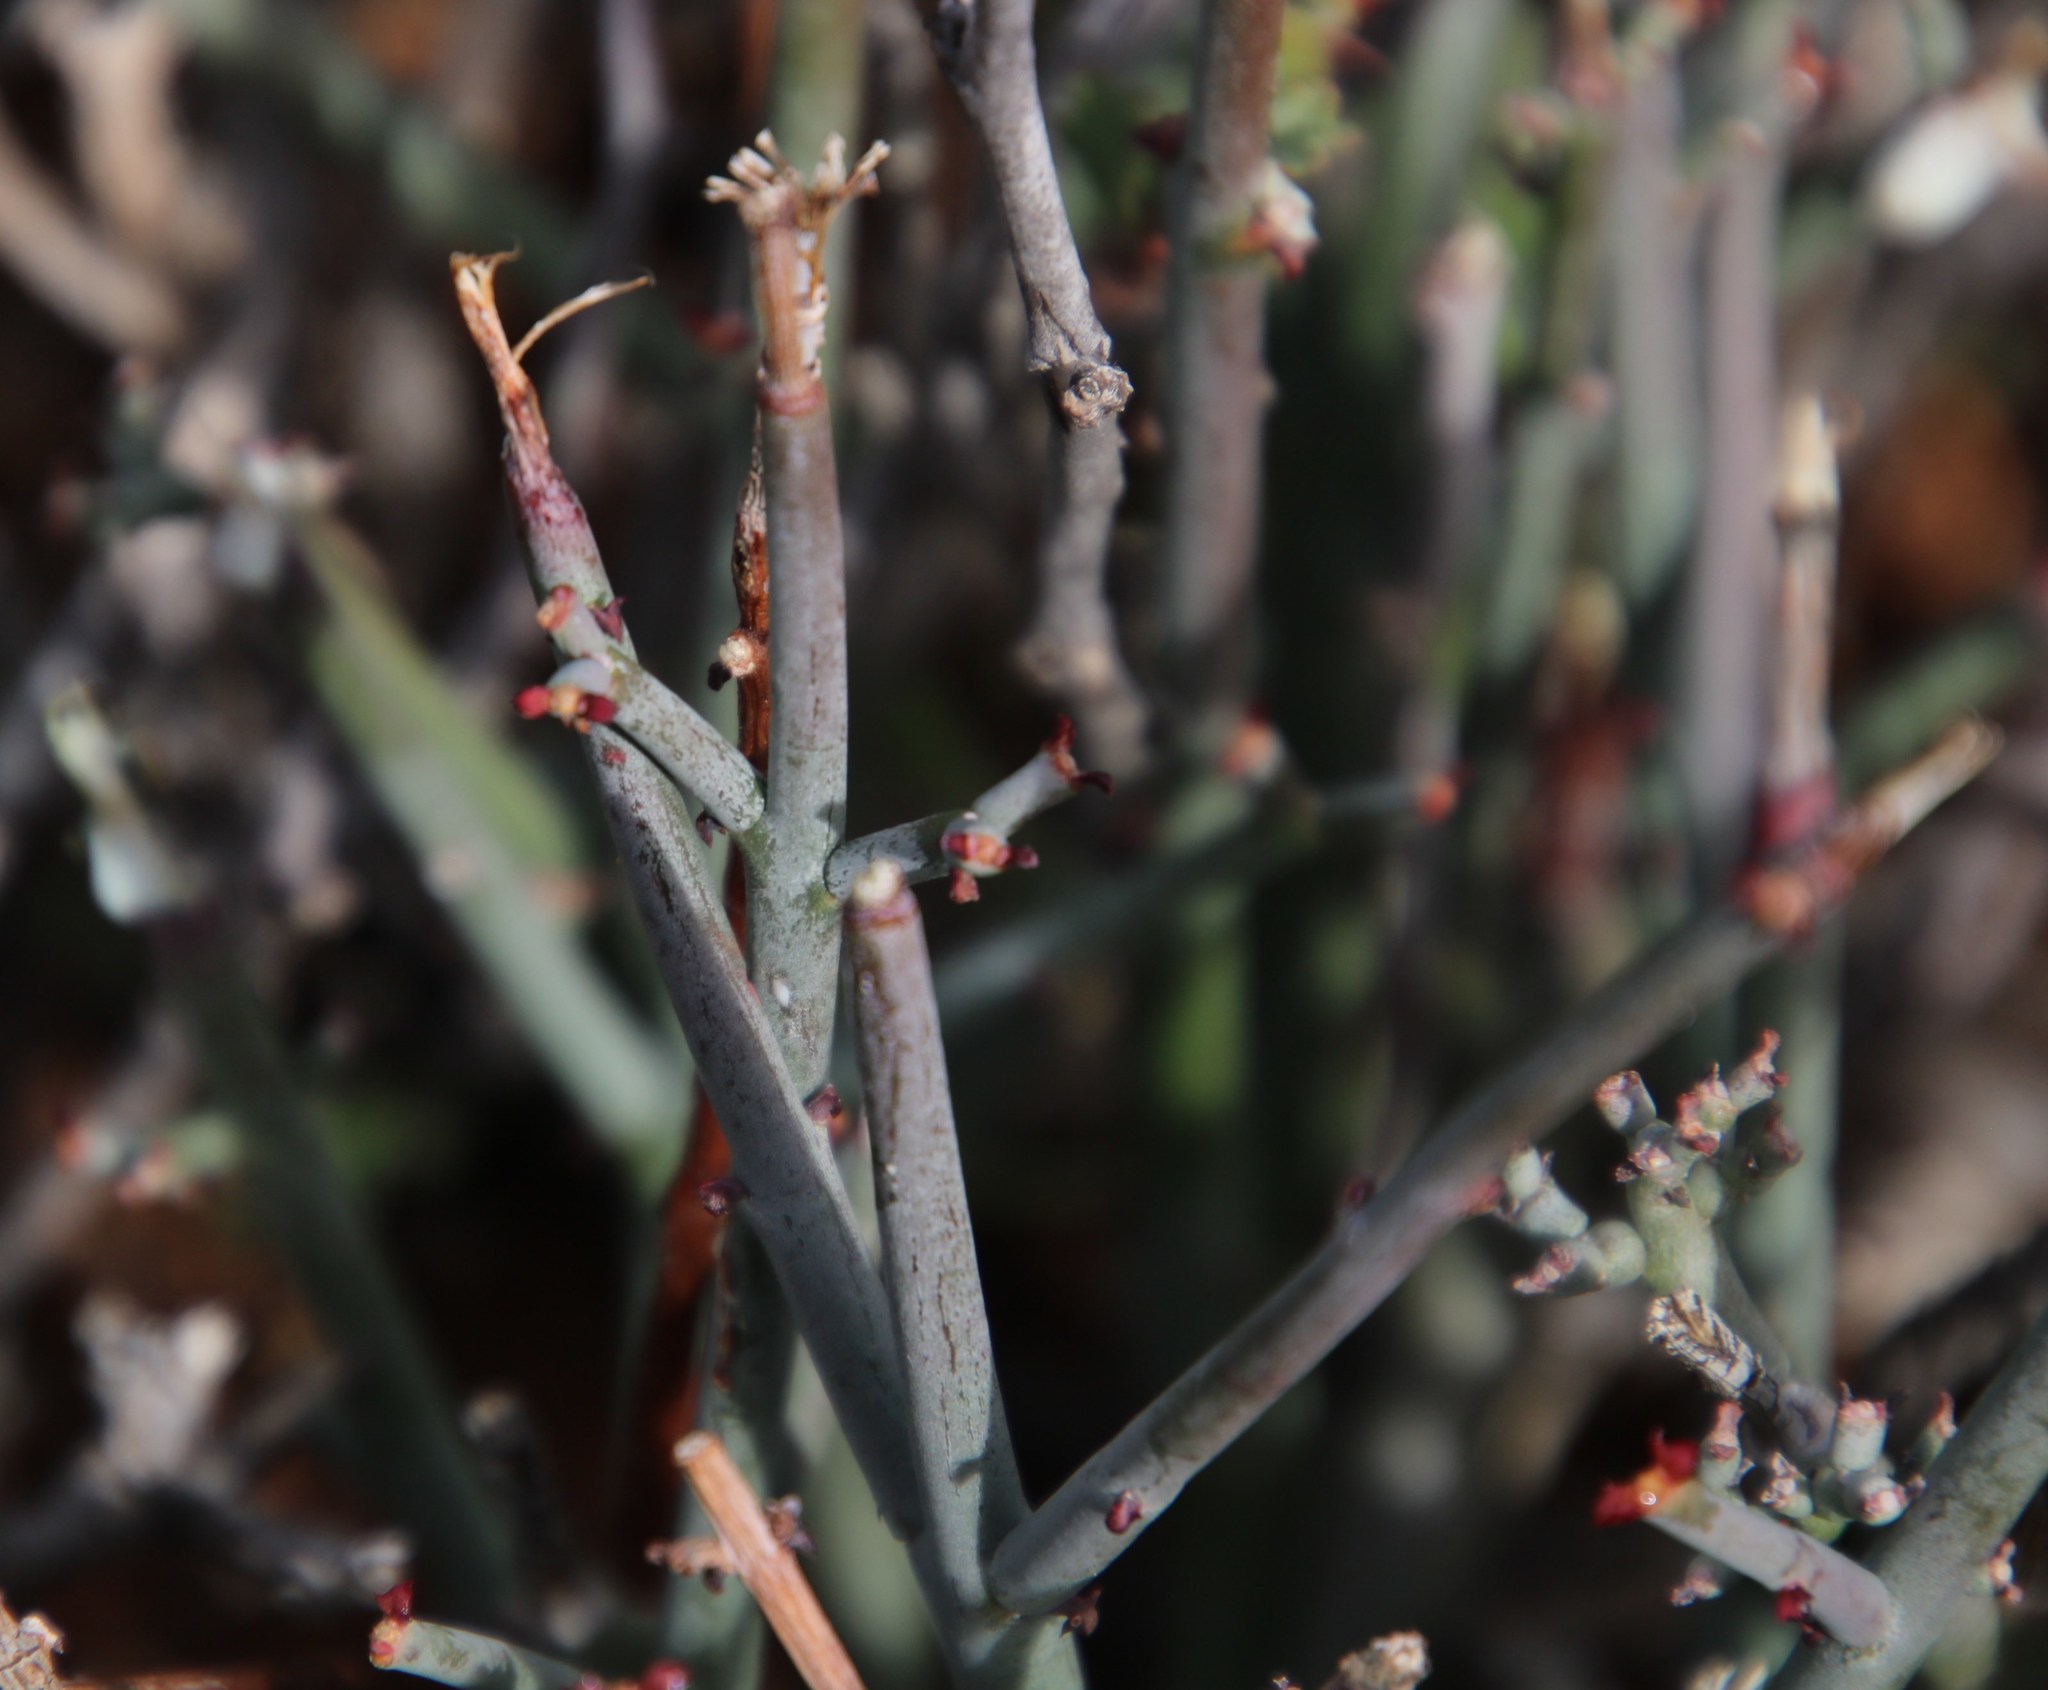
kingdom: Plantae
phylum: Tracheophyta
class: Magnoliopsida
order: Malpighiales
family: Euphorbiaceae
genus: Euphorbia
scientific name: Euphorbia
